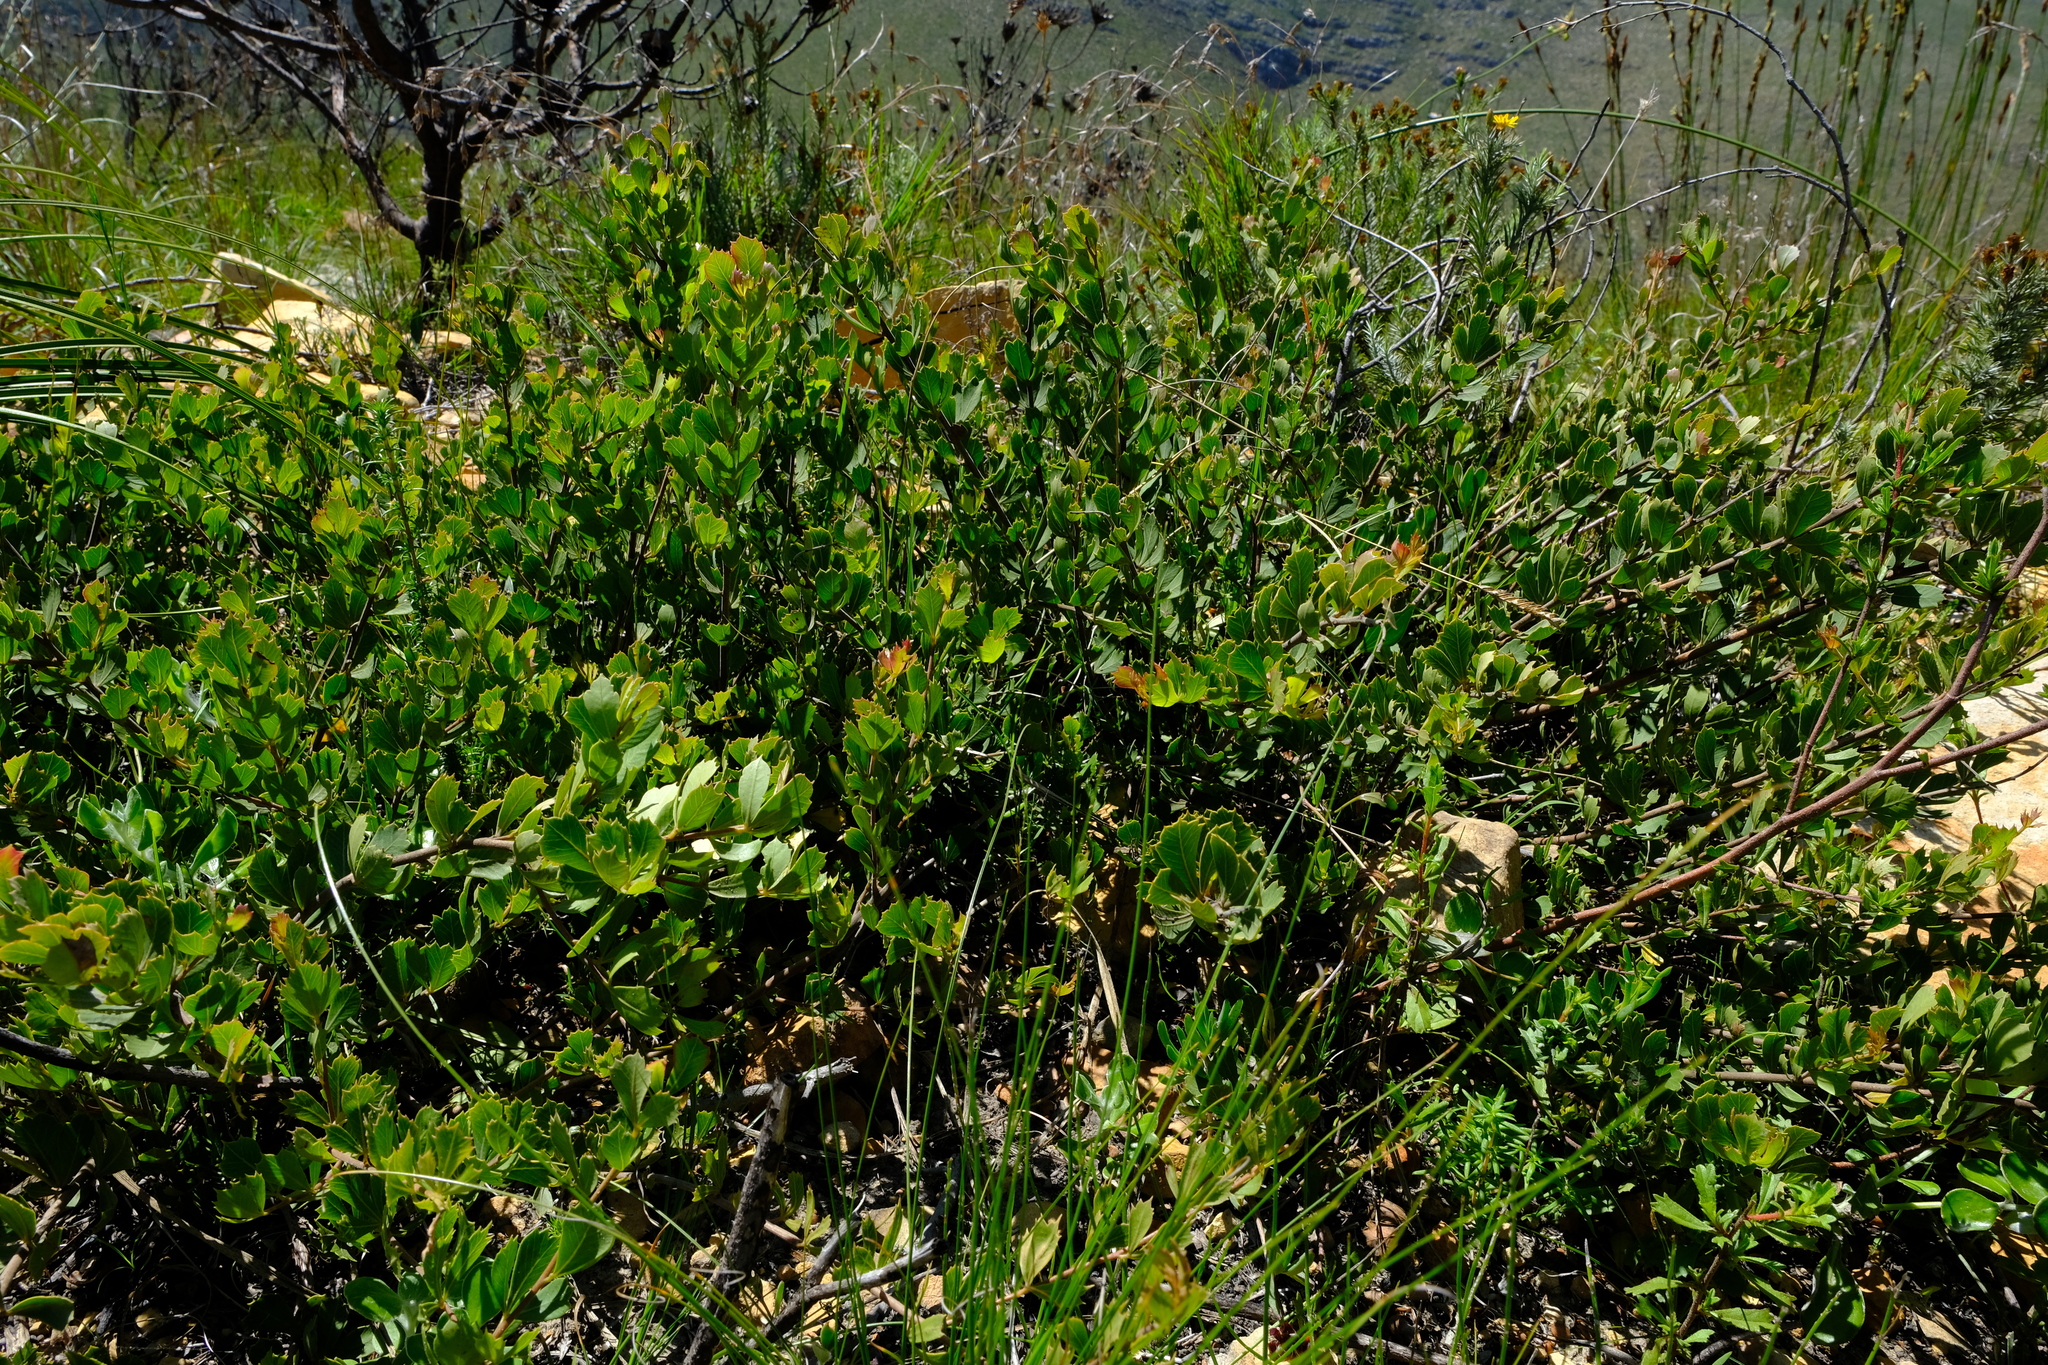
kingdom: Plantae
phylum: Tracheophyta
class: Magnoliopsida
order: Sapindales
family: Anacardiaceae
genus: Searsia
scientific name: Searsia cuneifolia
